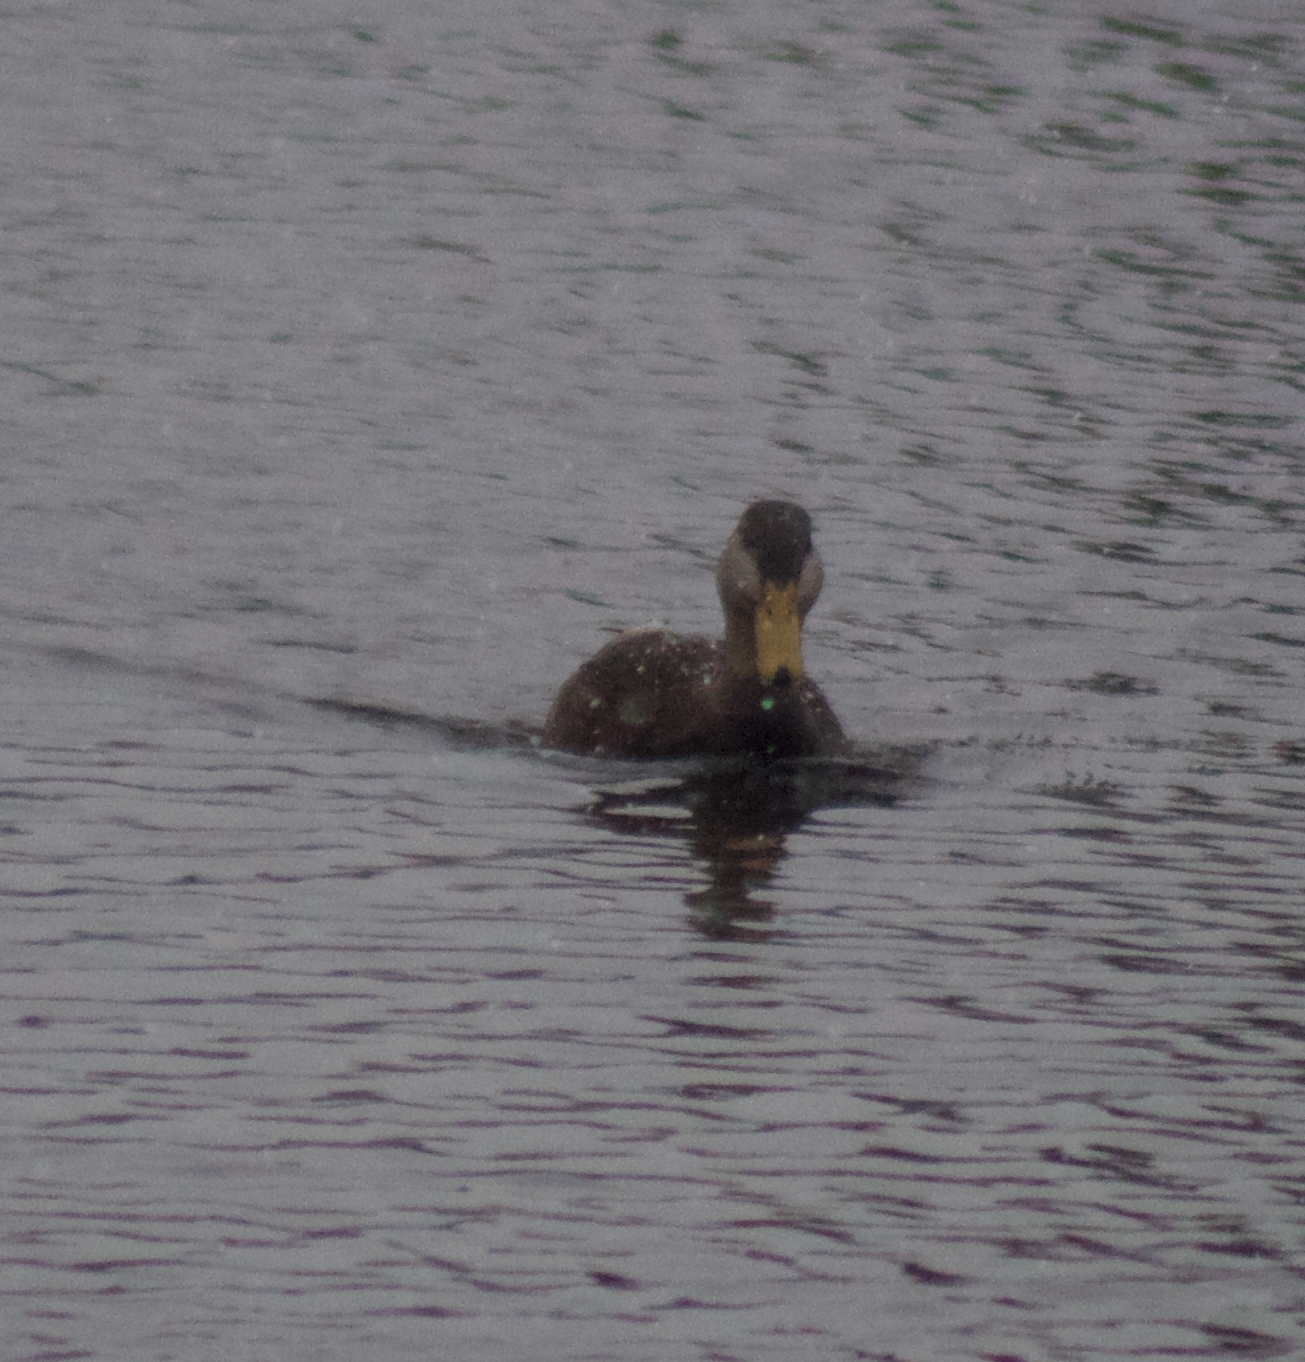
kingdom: Animalia
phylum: Chordata
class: Aves
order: Anseriformes
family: Anatidae
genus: Anas
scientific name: Anas rubripes
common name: American black duck
